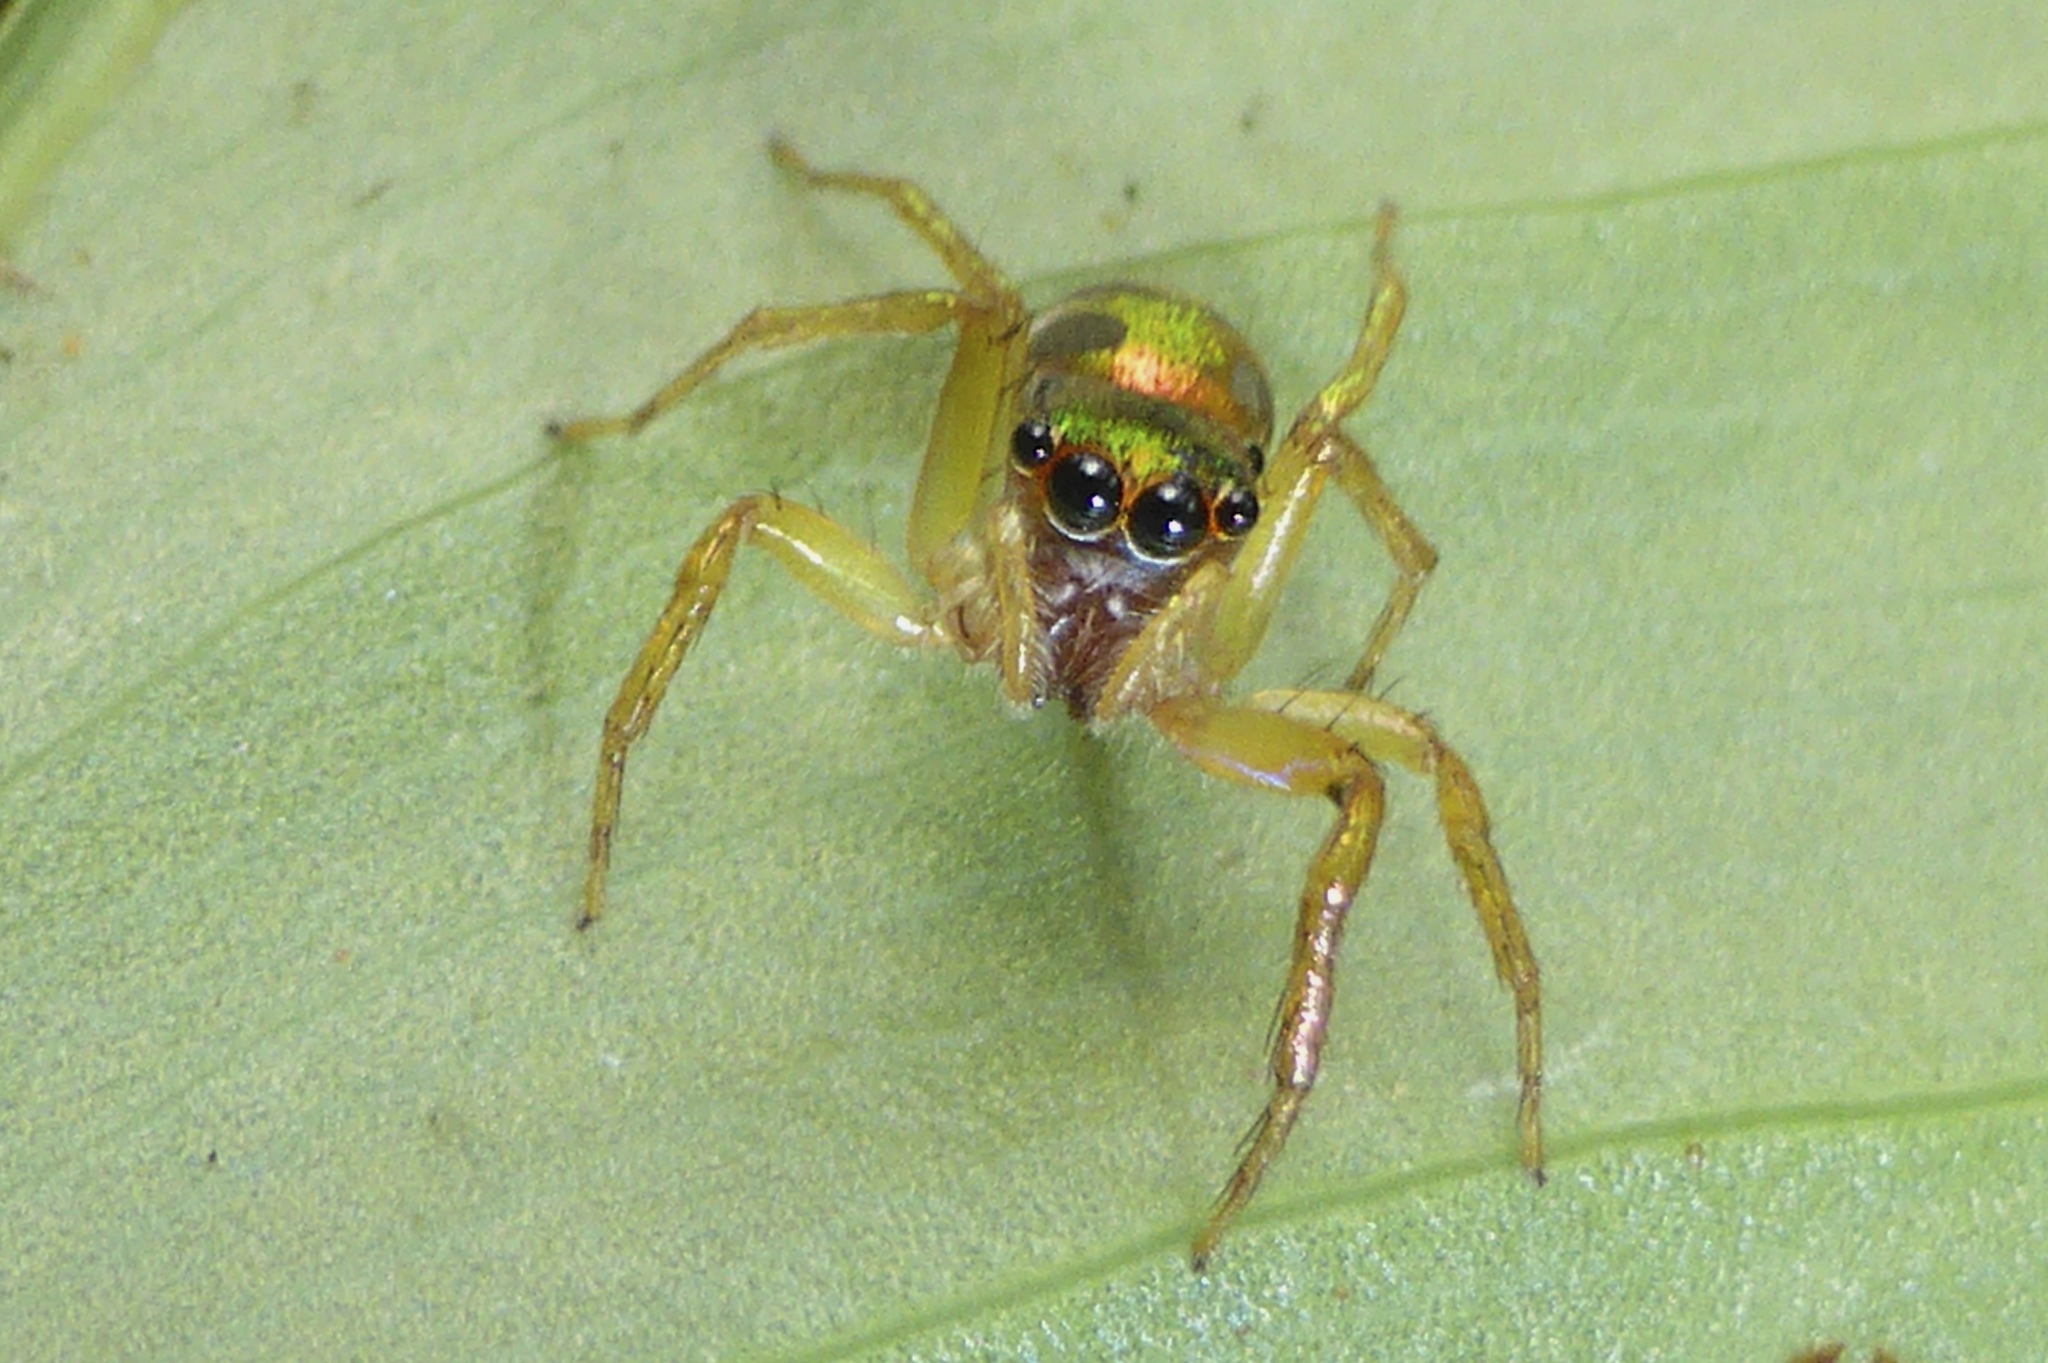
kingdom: Animalia
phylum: Arthropoda
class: Arachnida
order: Araneae
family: Salticidae
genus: Cytaea
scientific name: Cytaea haematica
